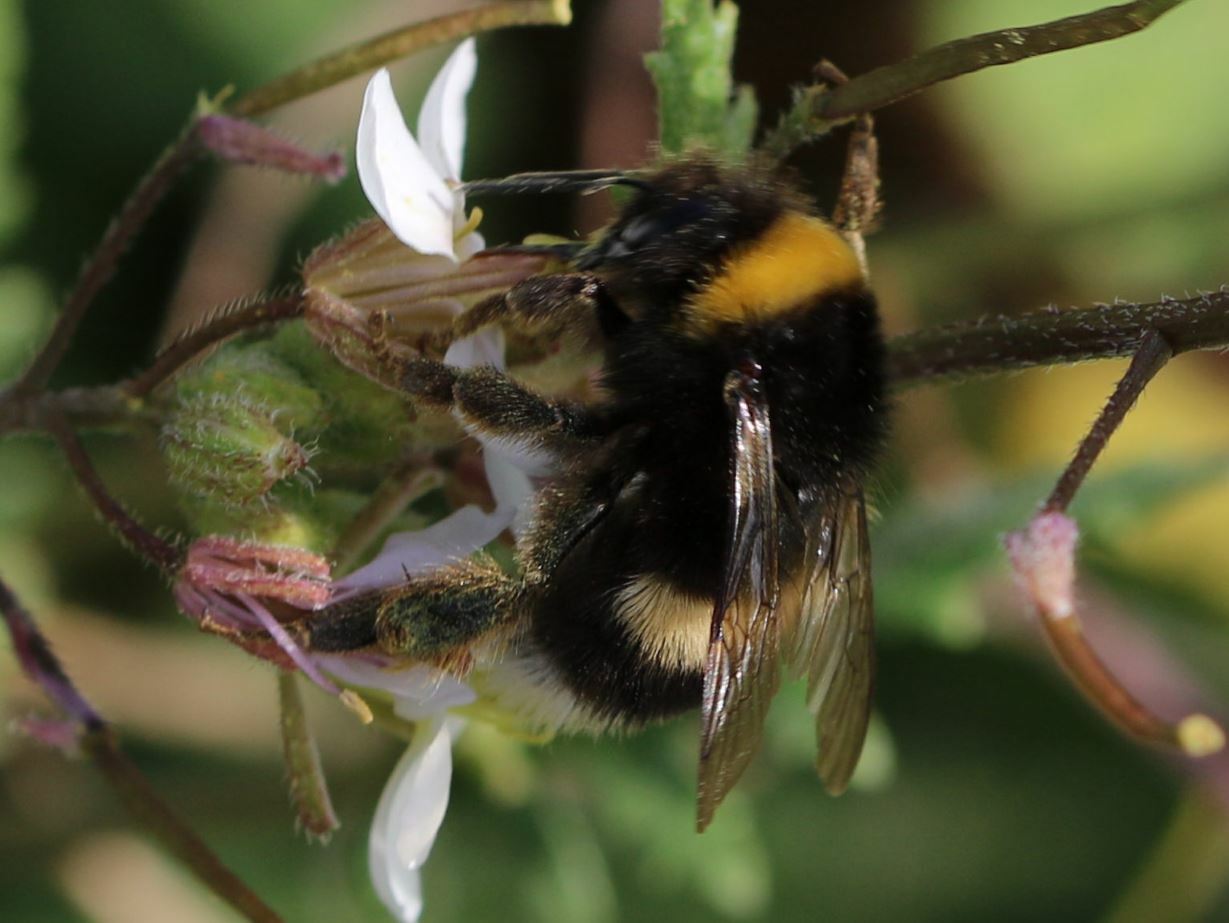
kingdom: Animalia
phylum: Arthropoda
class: Insecta
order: Hymenoptera
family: Apidae
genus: Bombus
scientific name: Bombus terrestris
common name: Buff-tailed bumblebee
